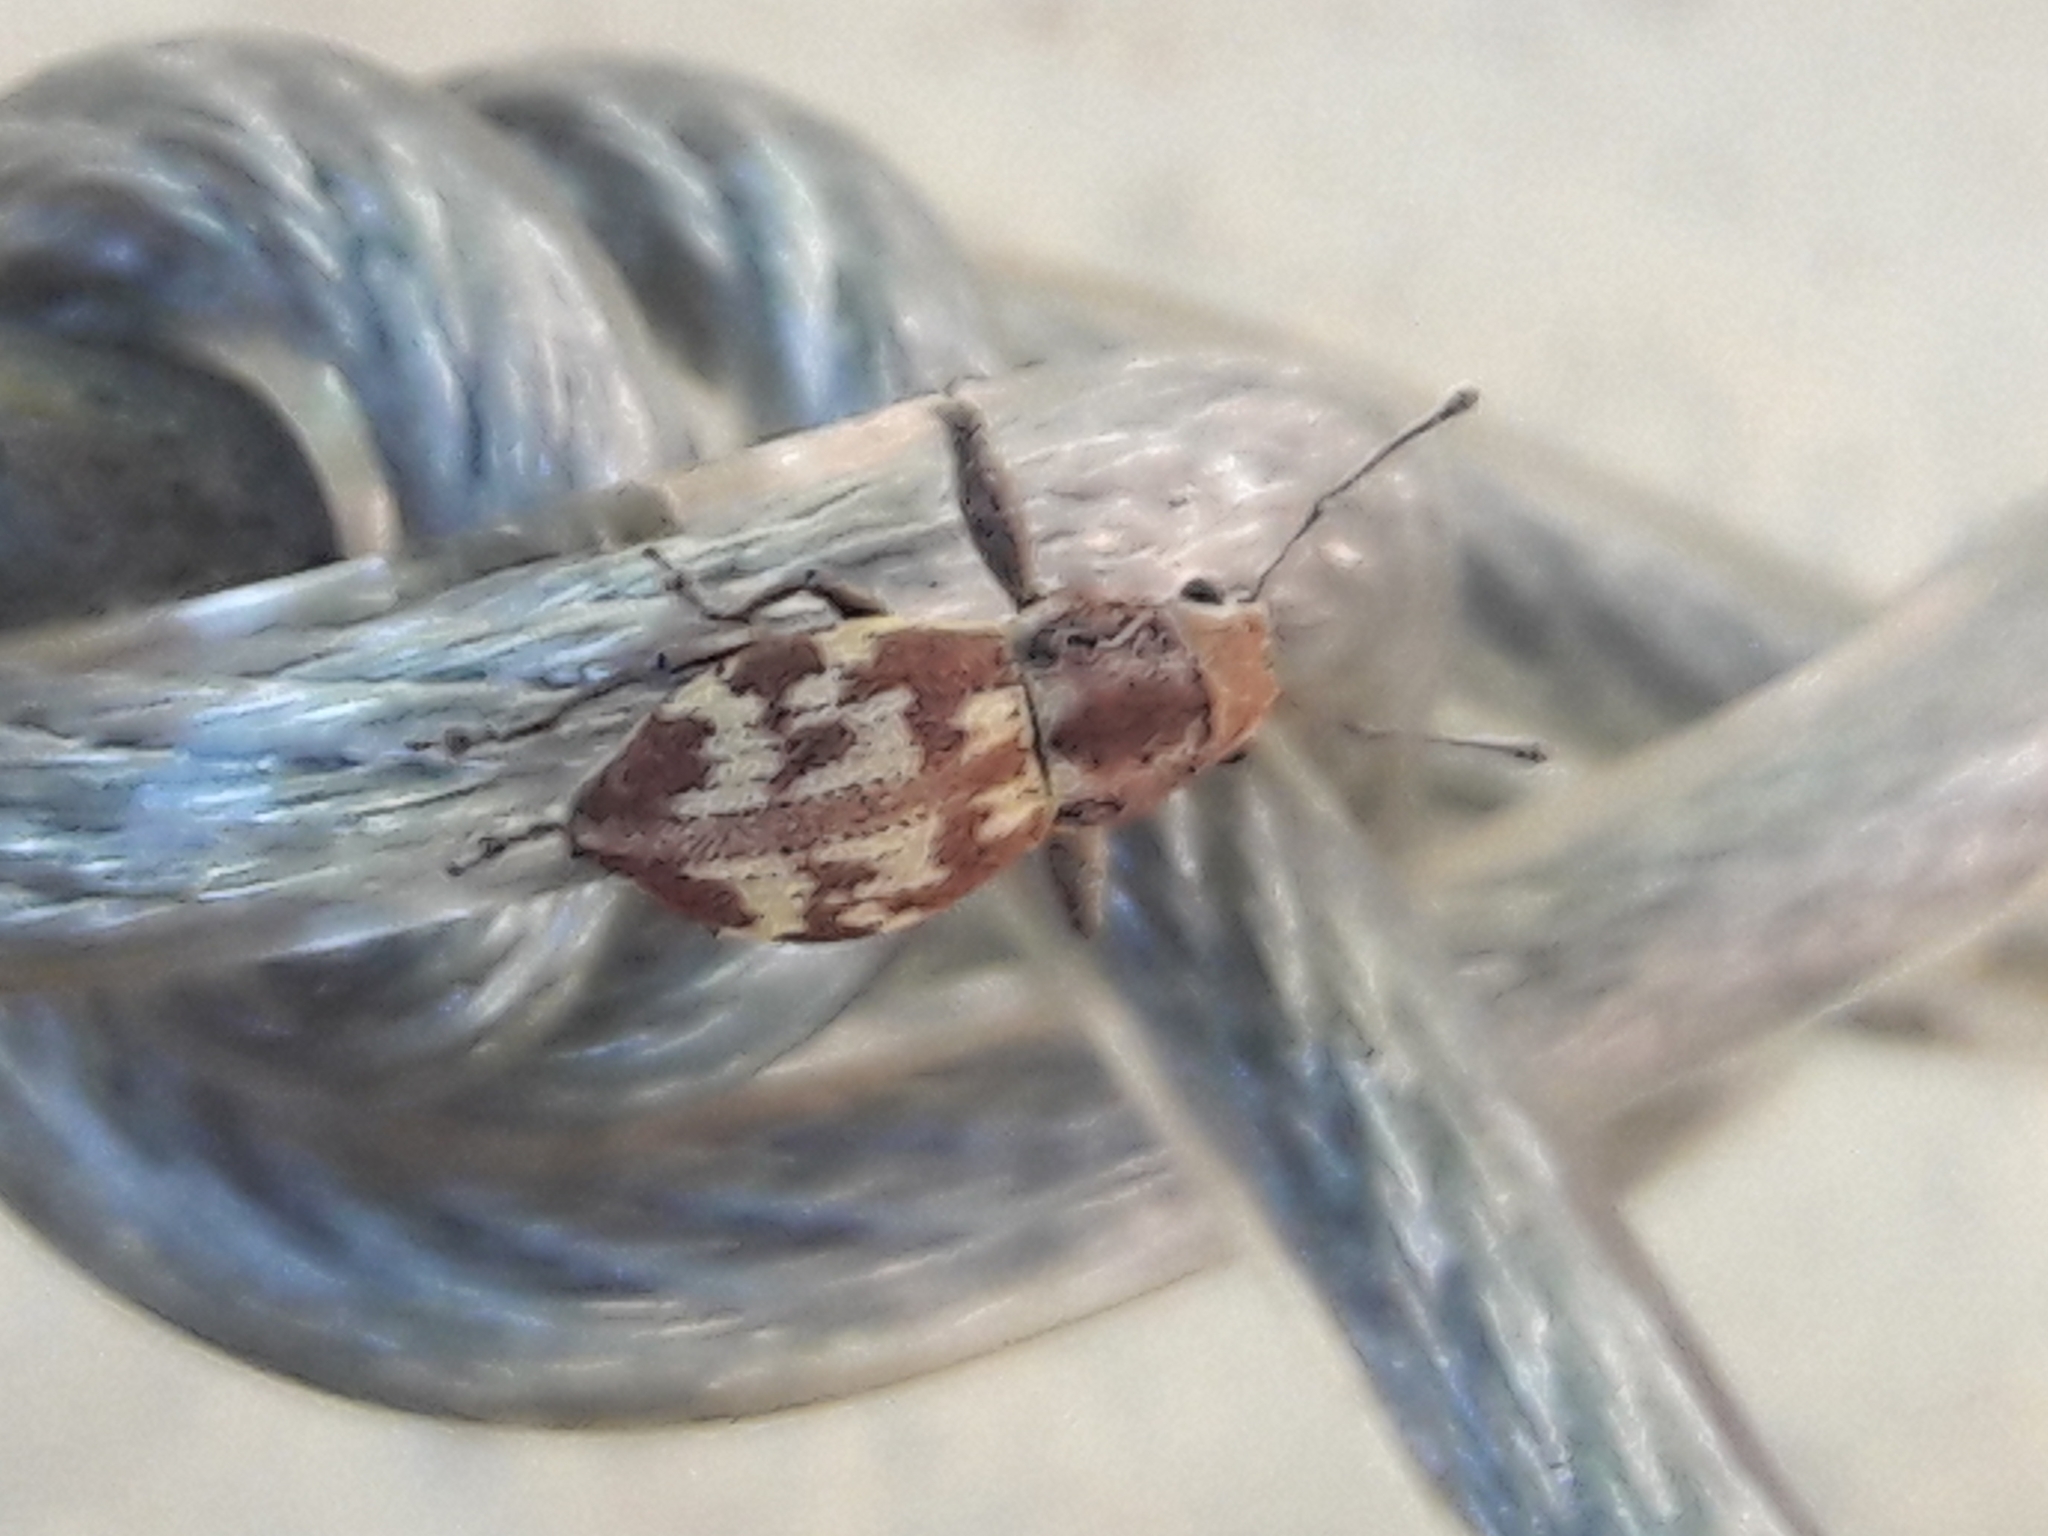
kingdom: Animalia
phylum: Arthropoda
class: Insecta
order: Coleoptera
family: Curculionidae
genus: Parapantomorus
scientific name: Parapantomorus fluctuosus
